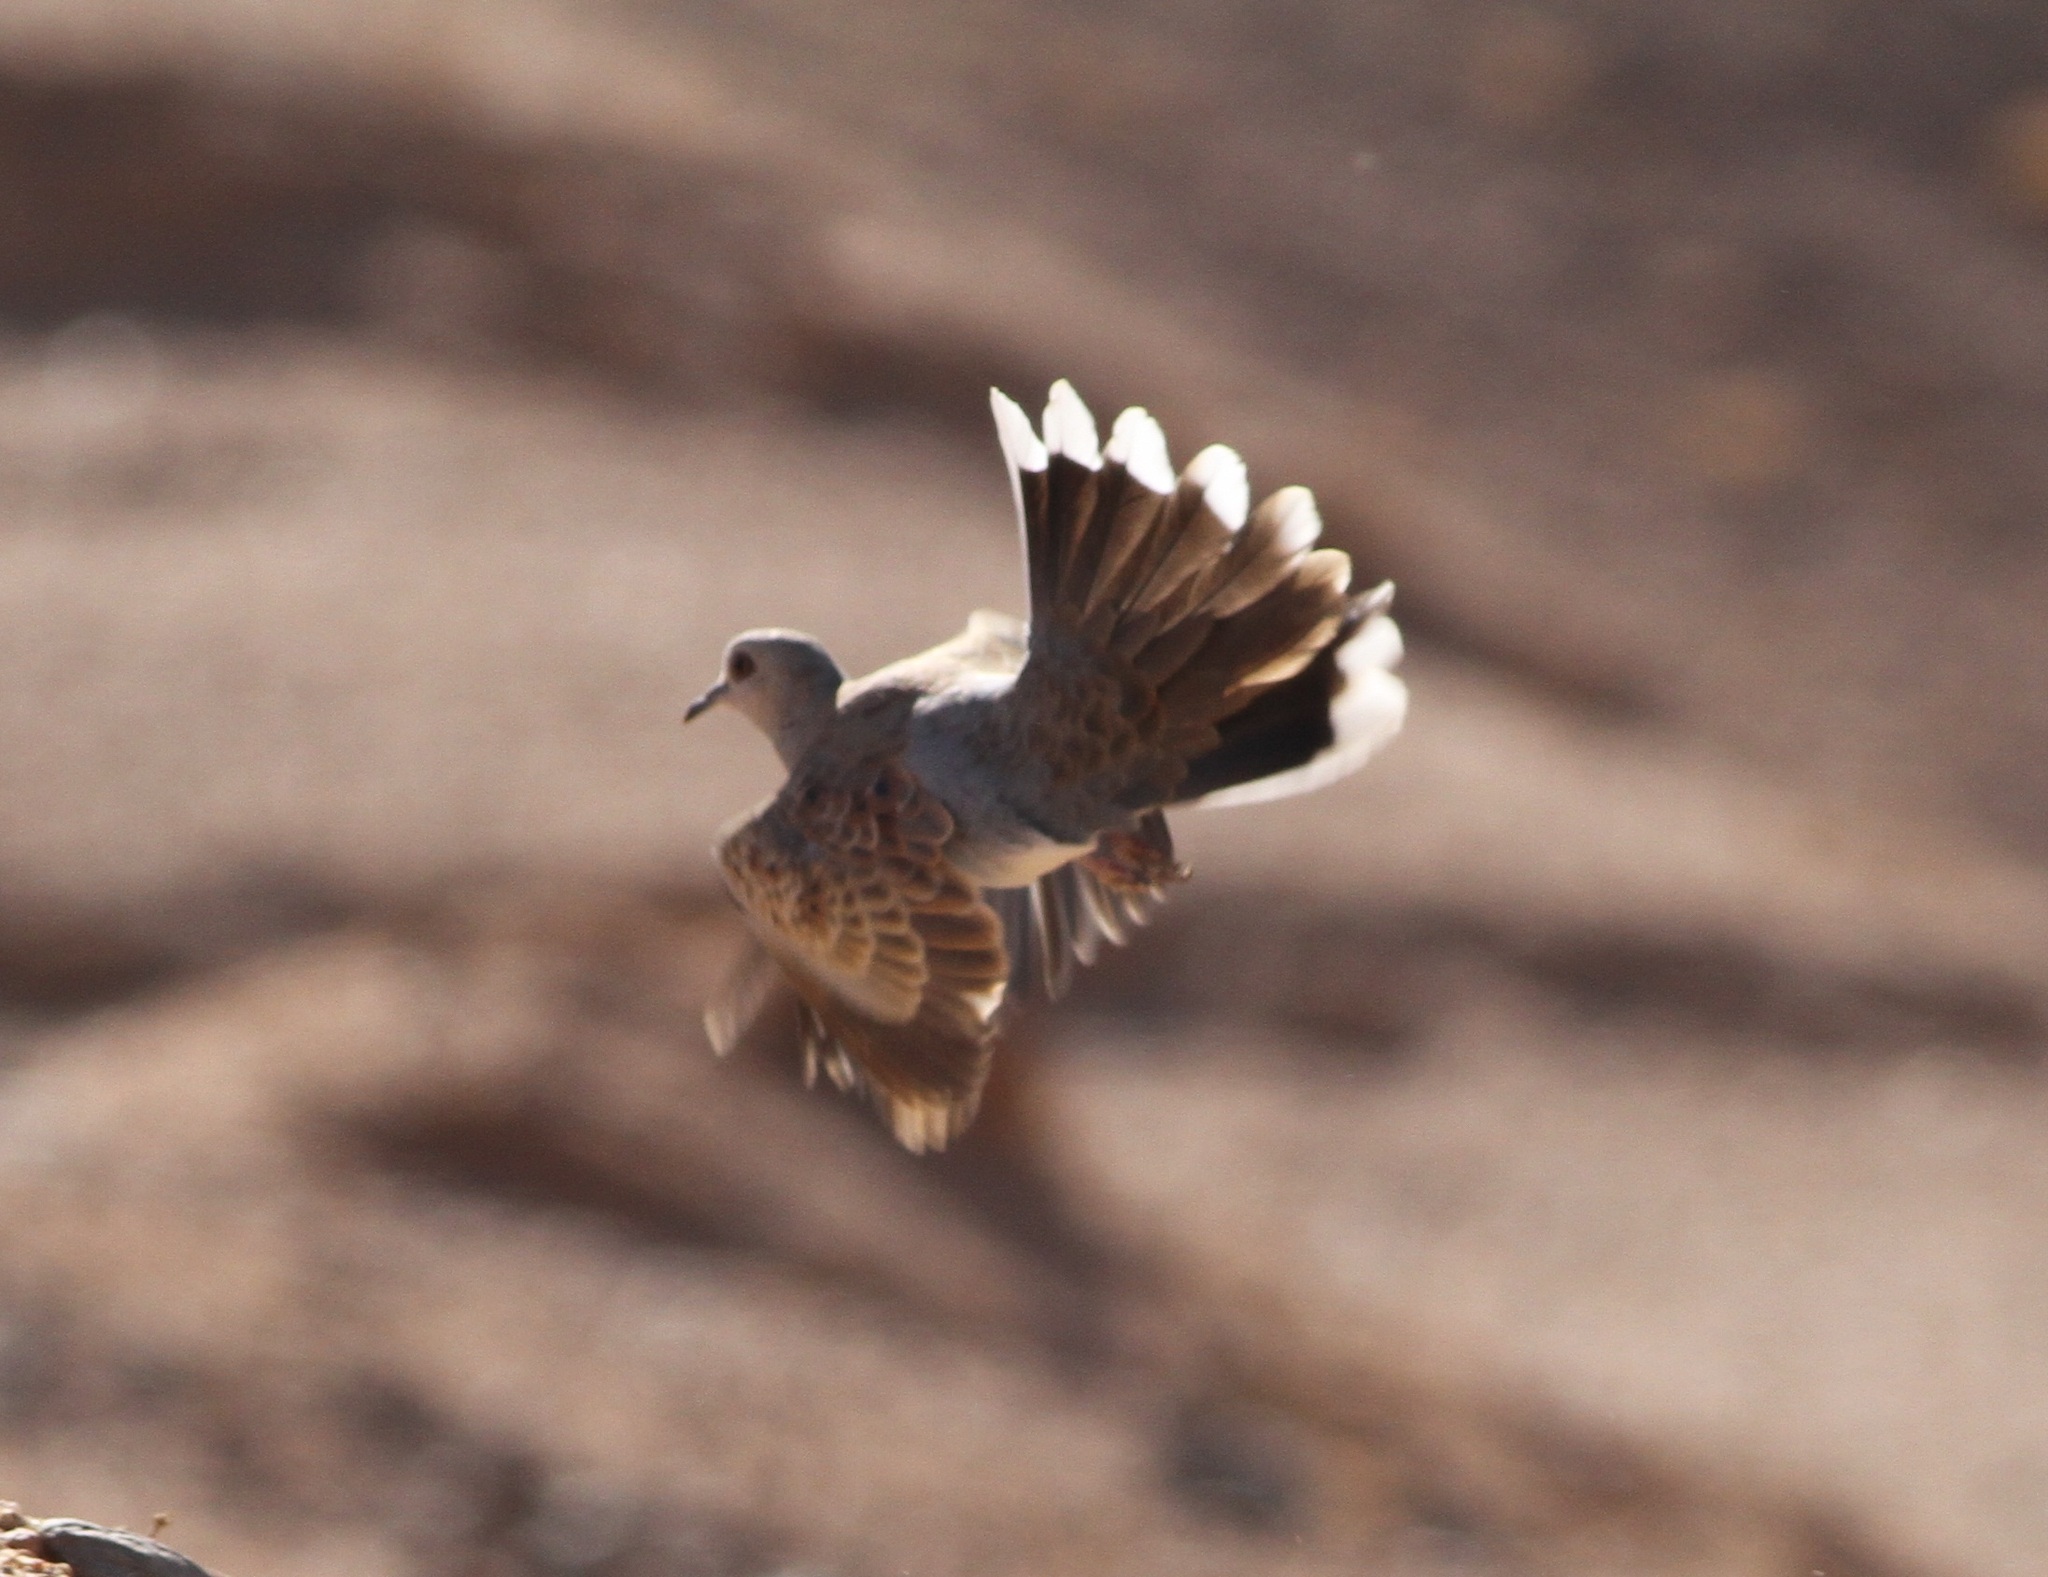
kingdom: Animalia
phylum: Chordata
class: Aves
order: Columbiformes
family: Columbidae
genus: Streptopelia
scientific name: Streptopelia turtur
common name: European turtle dove
